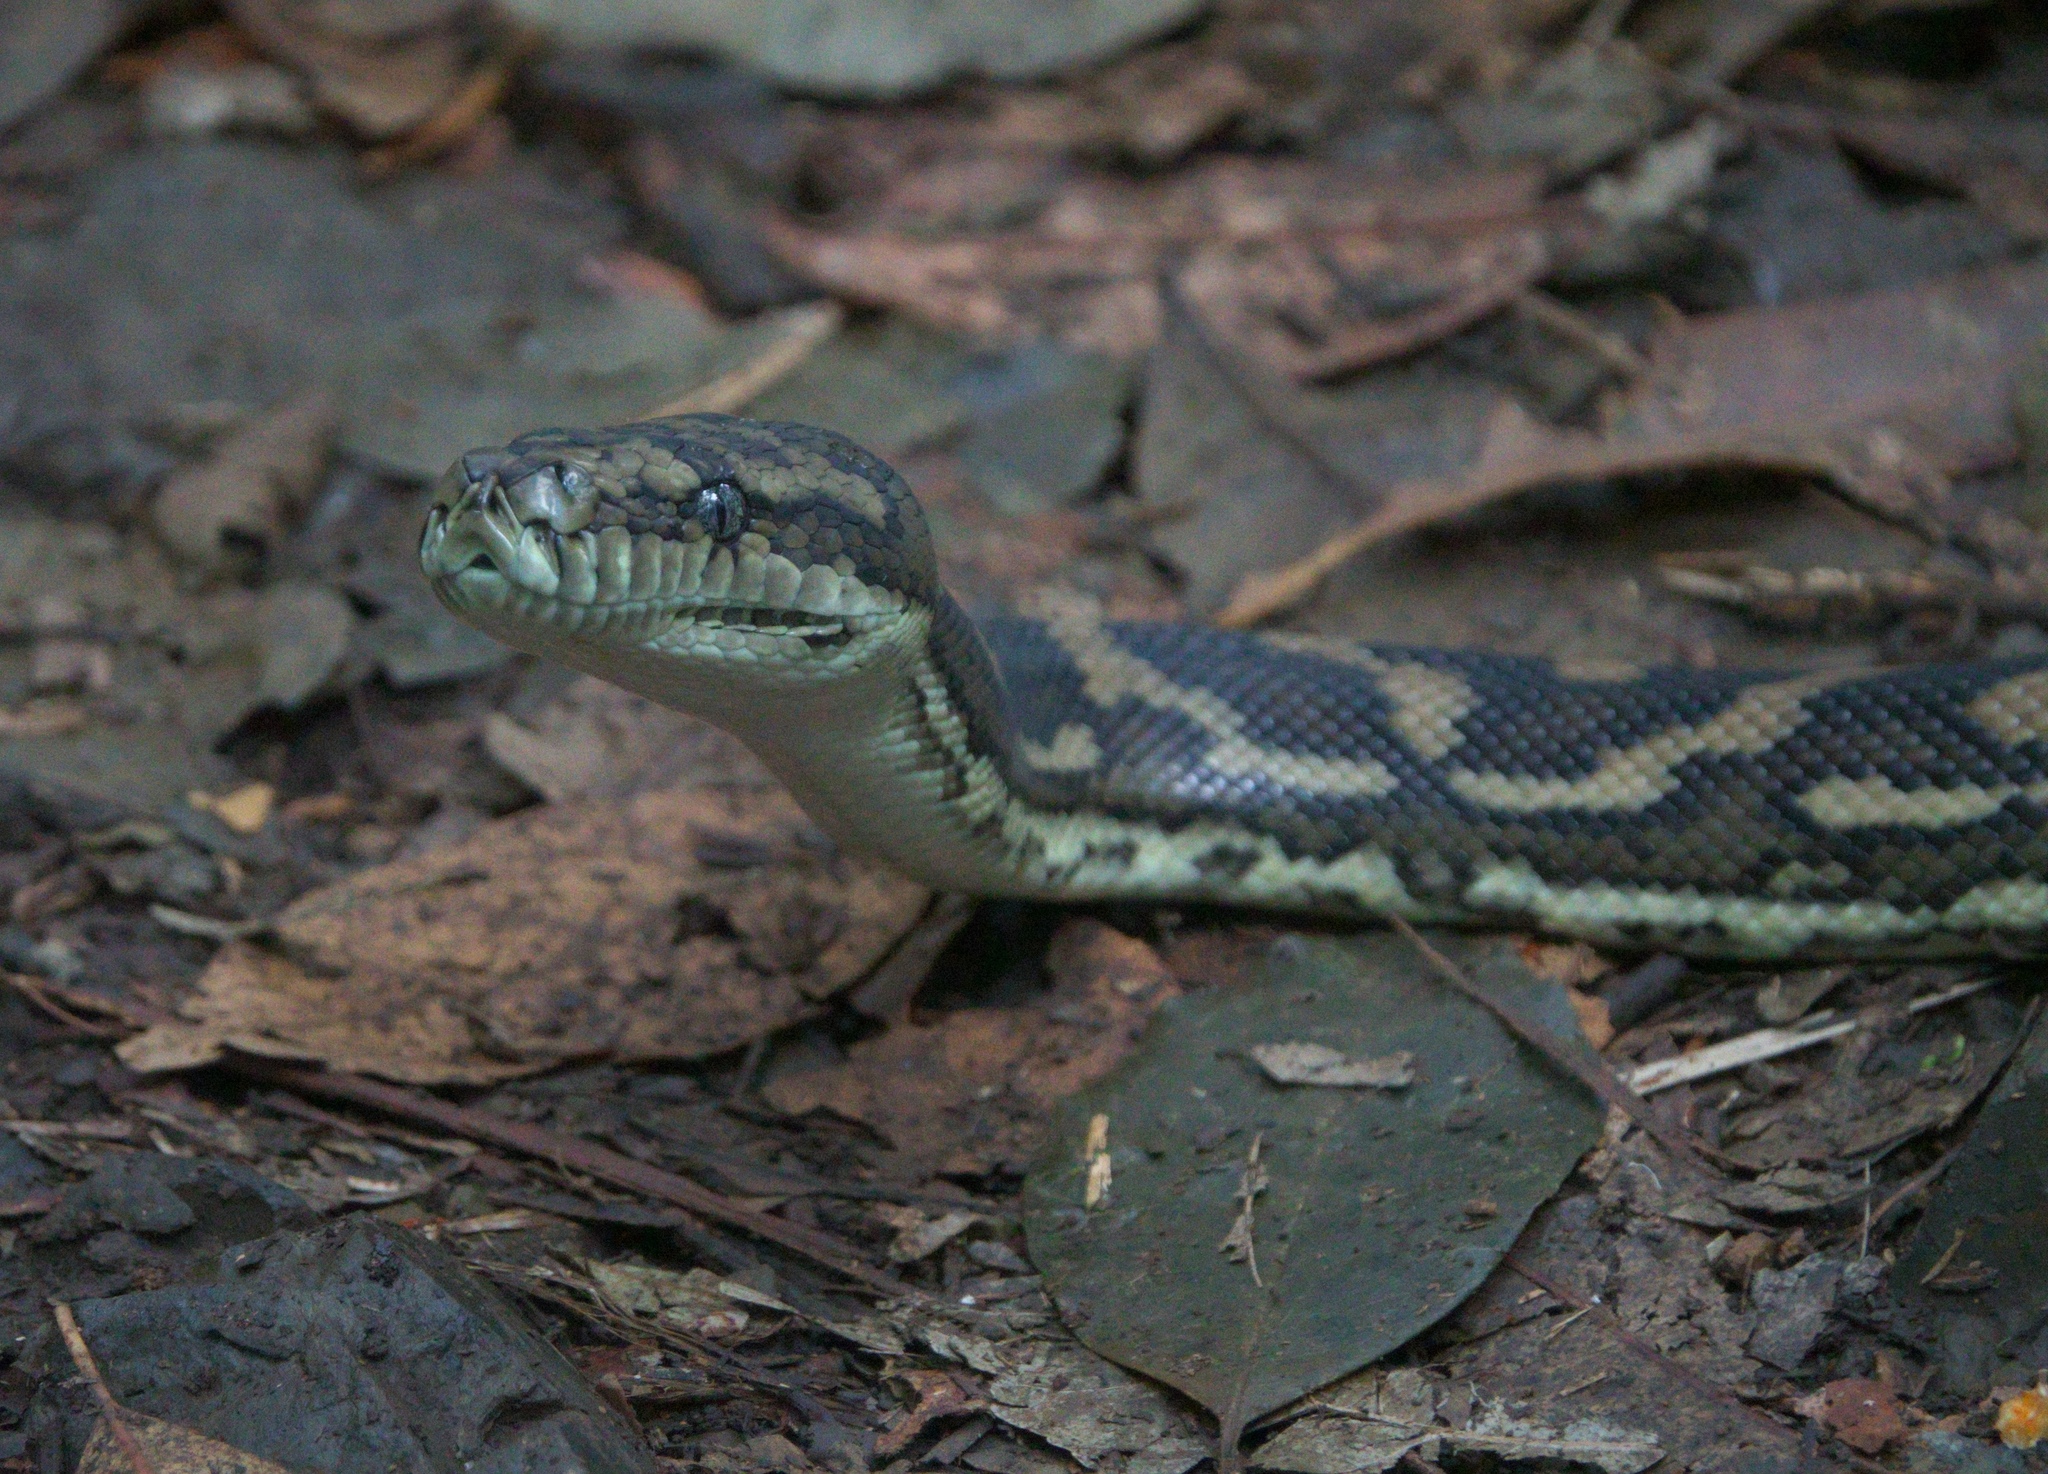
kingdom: Animalia
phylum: Chordata
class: Squamata
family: Pythonidae
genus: Morelia
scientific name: Morelia spilota
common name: Carpet python
